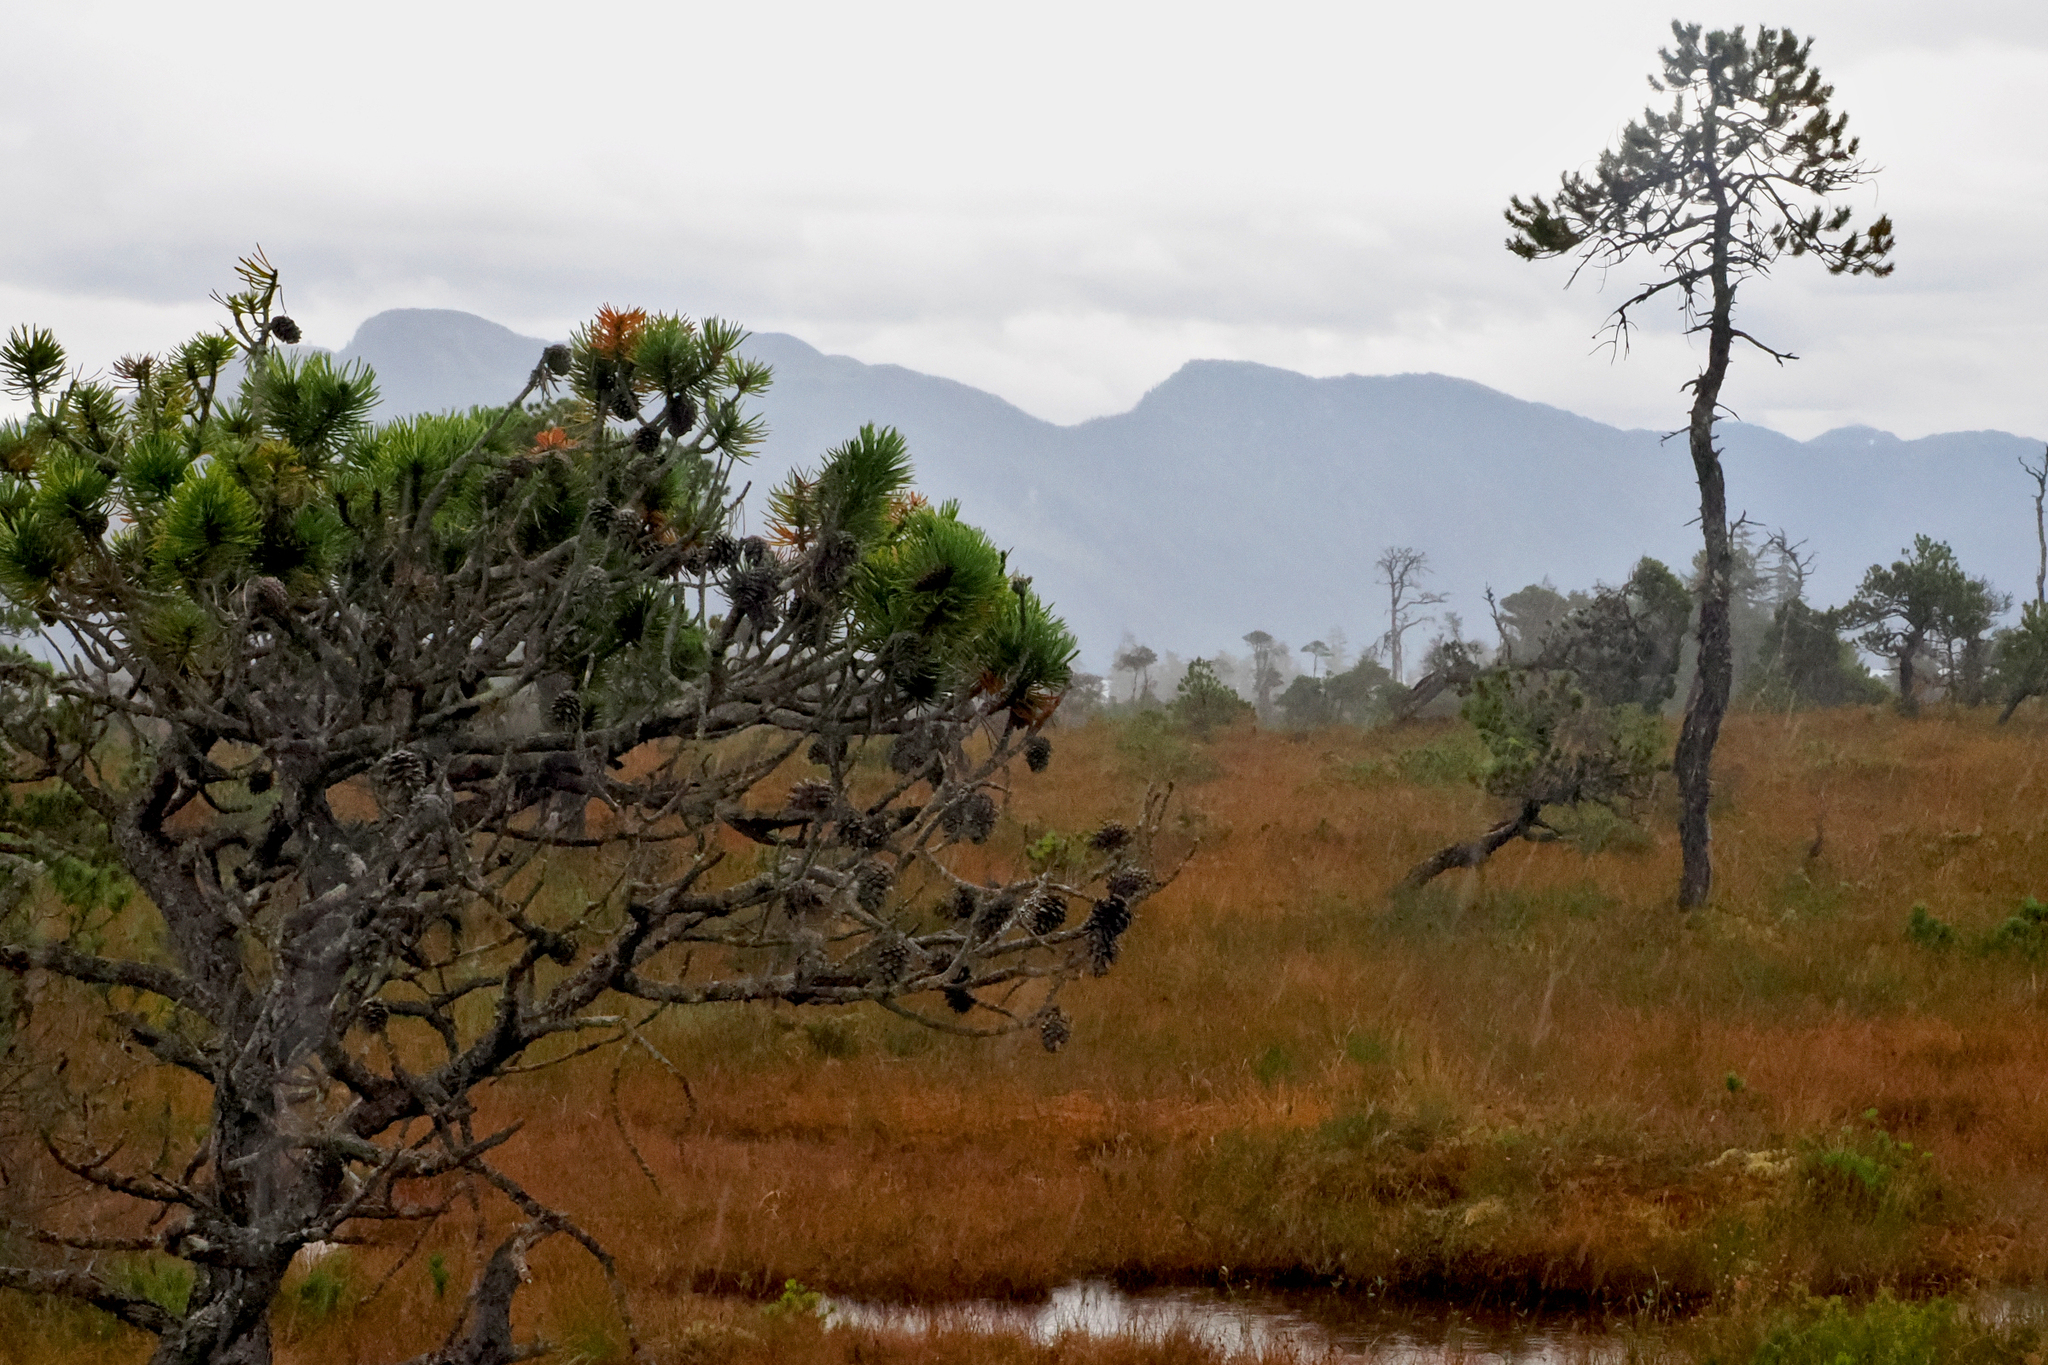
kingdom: Plantae
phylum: Tracheophyta
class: Pinopsida
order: Pinales
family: Pinaceae
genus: Pinus
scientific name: Pinus contorta
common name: Lodgepole pine
